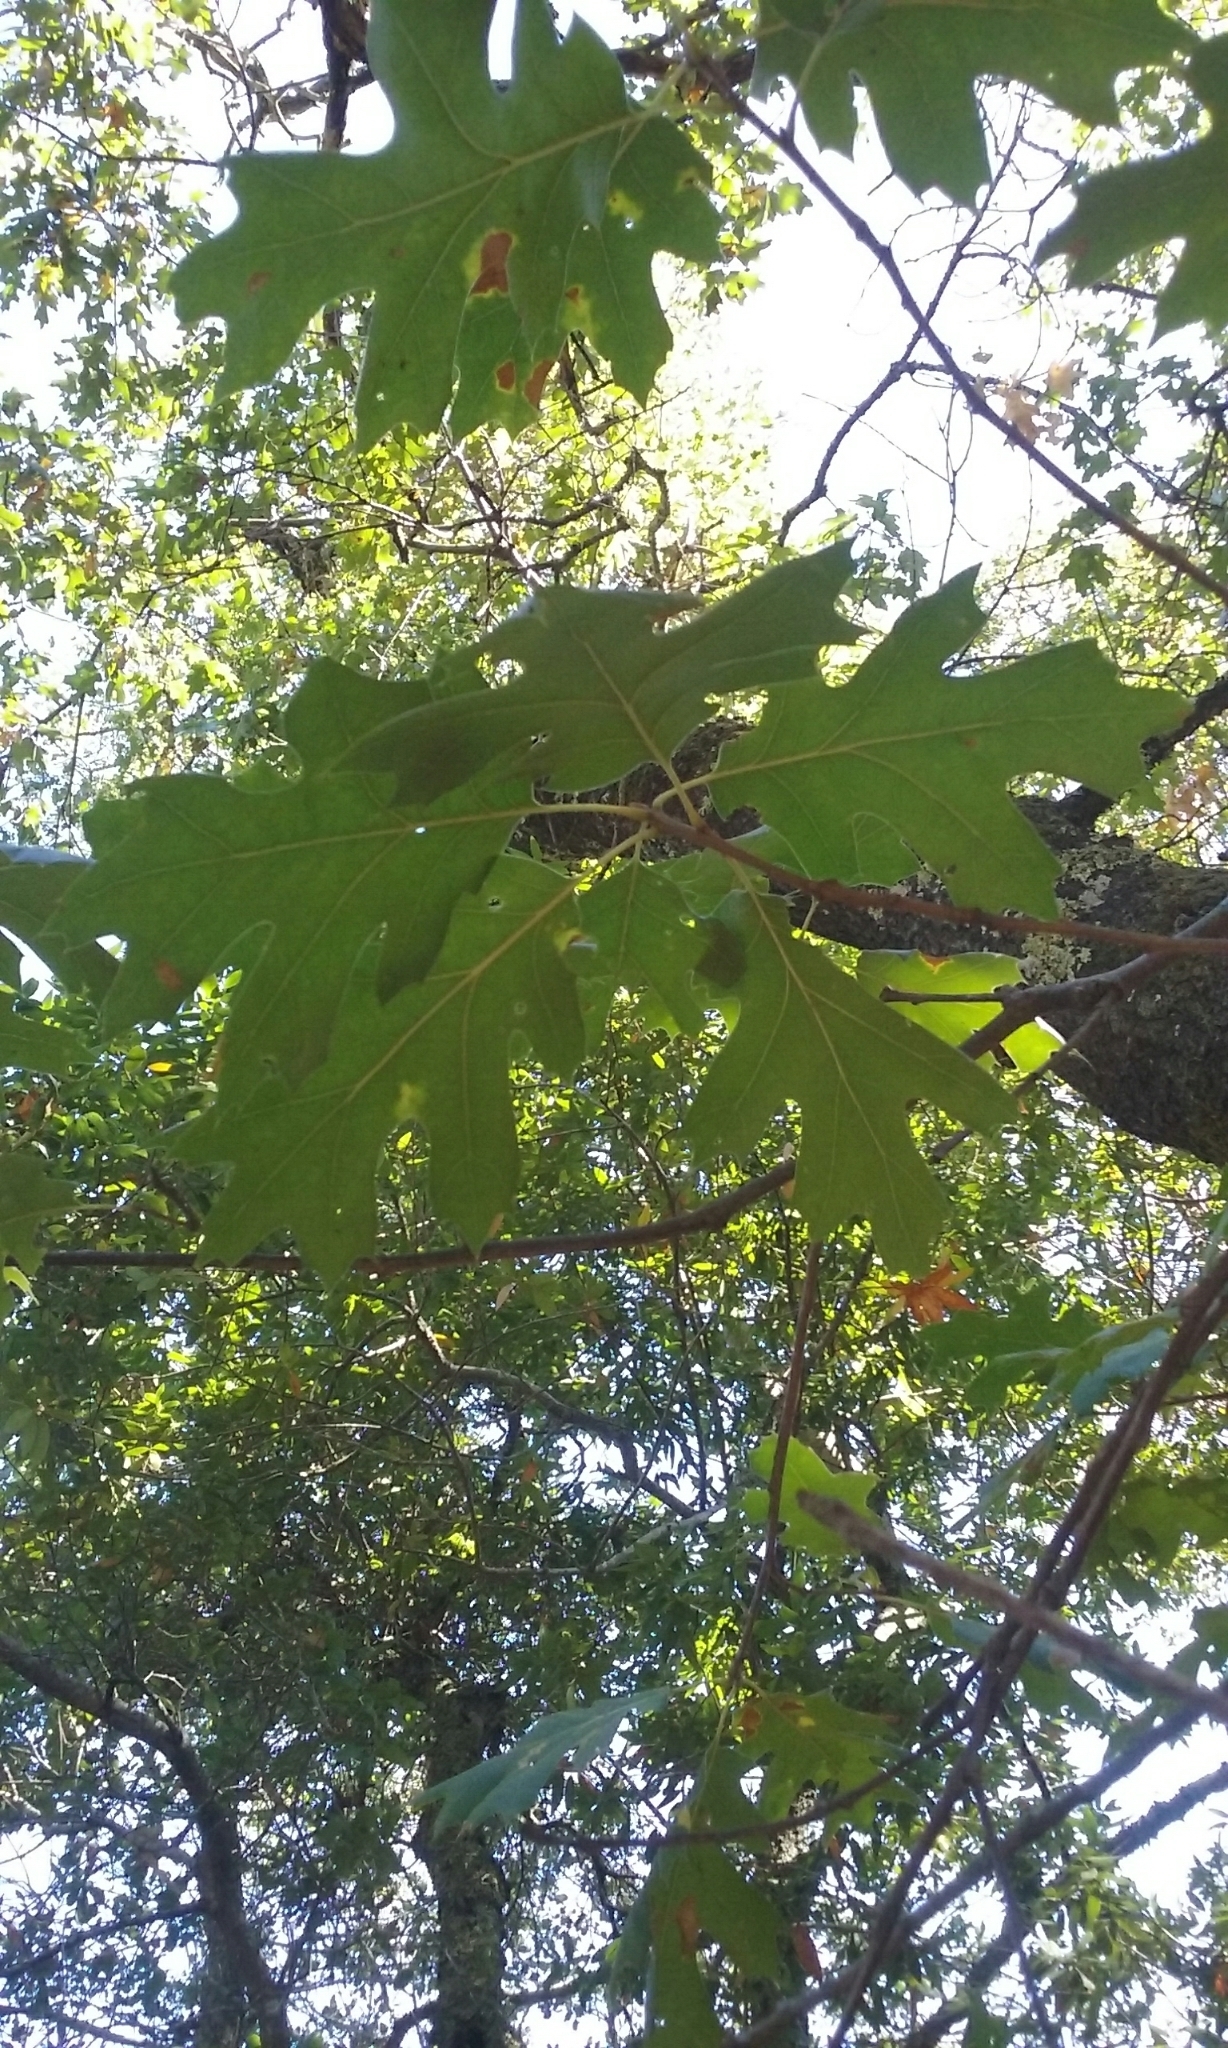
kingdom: Plantae
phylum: Tracheophyta
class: Magnoliopsida
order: Fagales
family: Fagaceae
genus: Quercus
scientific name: Quercus kelloggii
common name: California black oak
